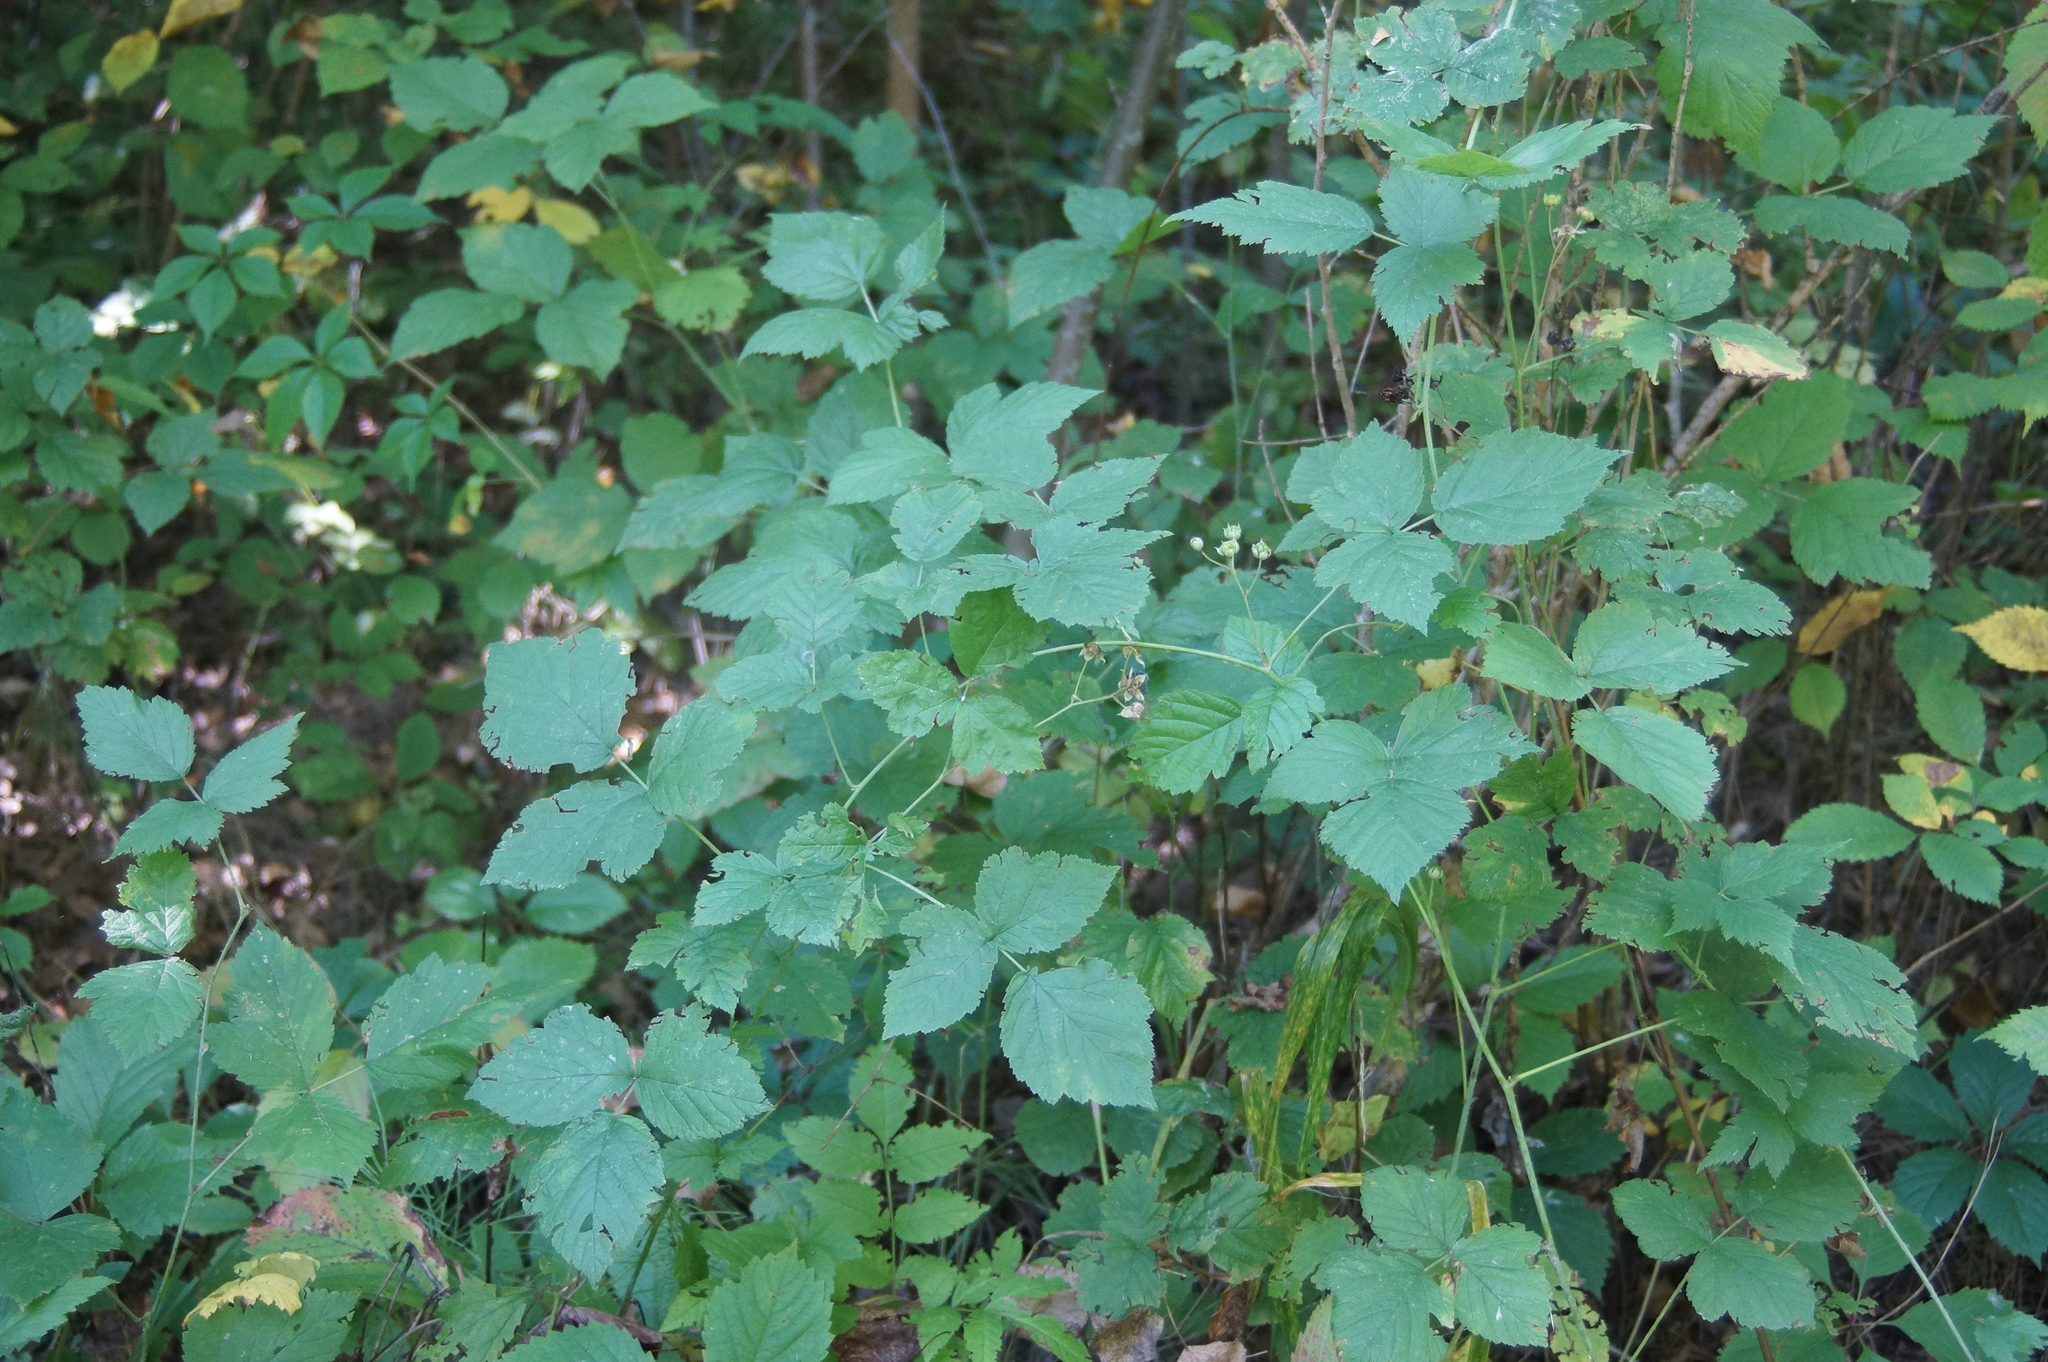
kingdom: Plantae
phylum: Tracheophyta
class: Magnoliopsida
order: Rosales
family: Rosaceae
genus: Rubus
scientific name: Rubus caesius
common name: Dewberry
